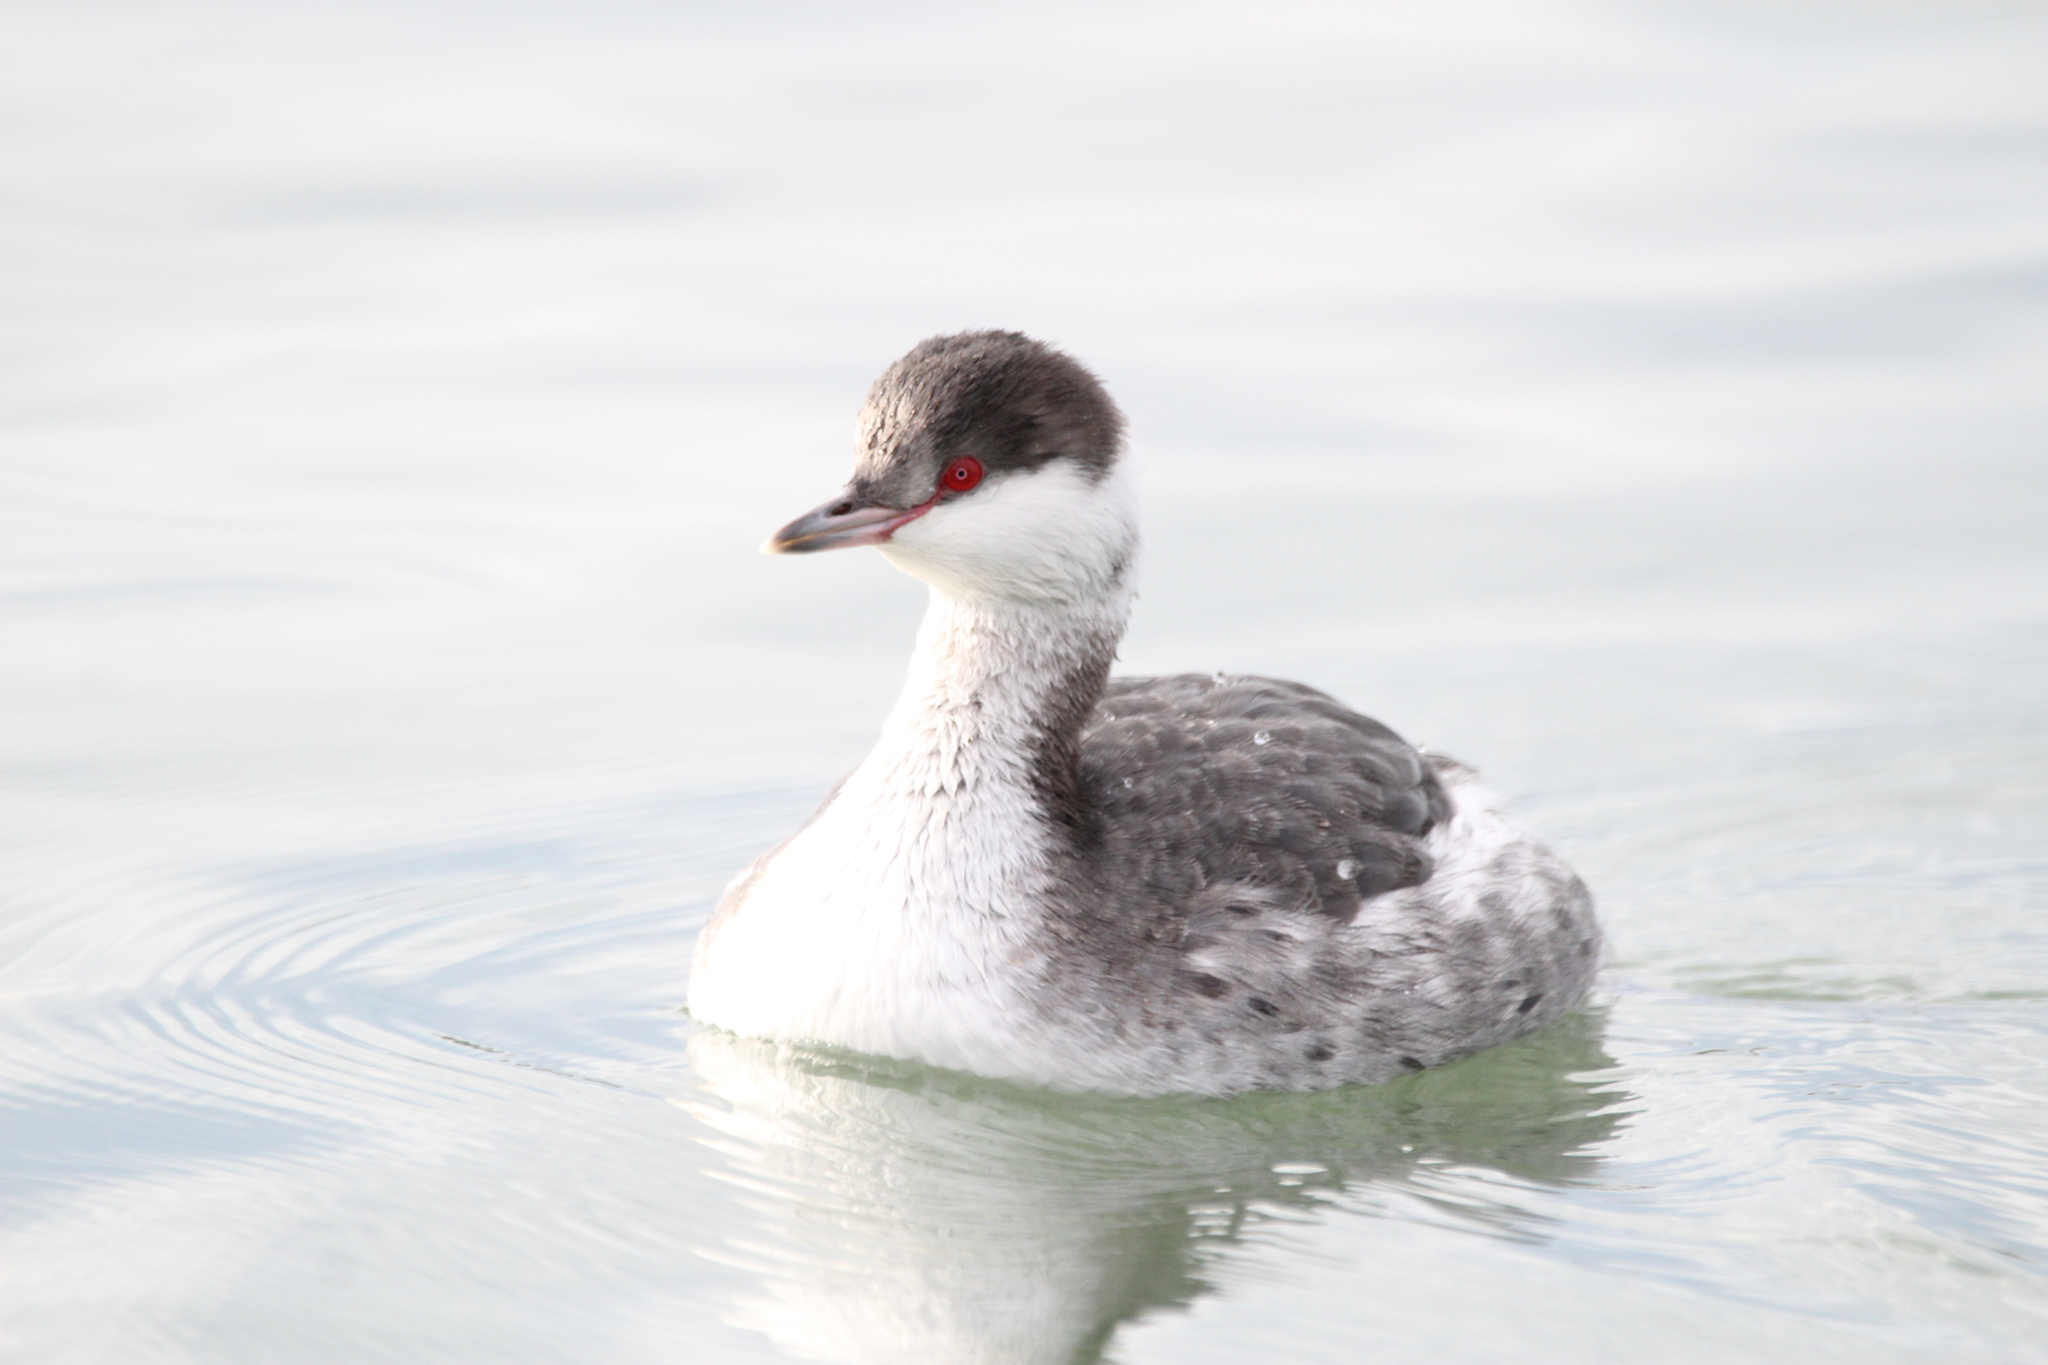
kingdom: Animalia
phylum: Chordata
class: Aves
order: Podicipediformes
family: Podicipedidae
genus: Podiceps
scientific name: Podiceps auritus
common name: Horned grebe
